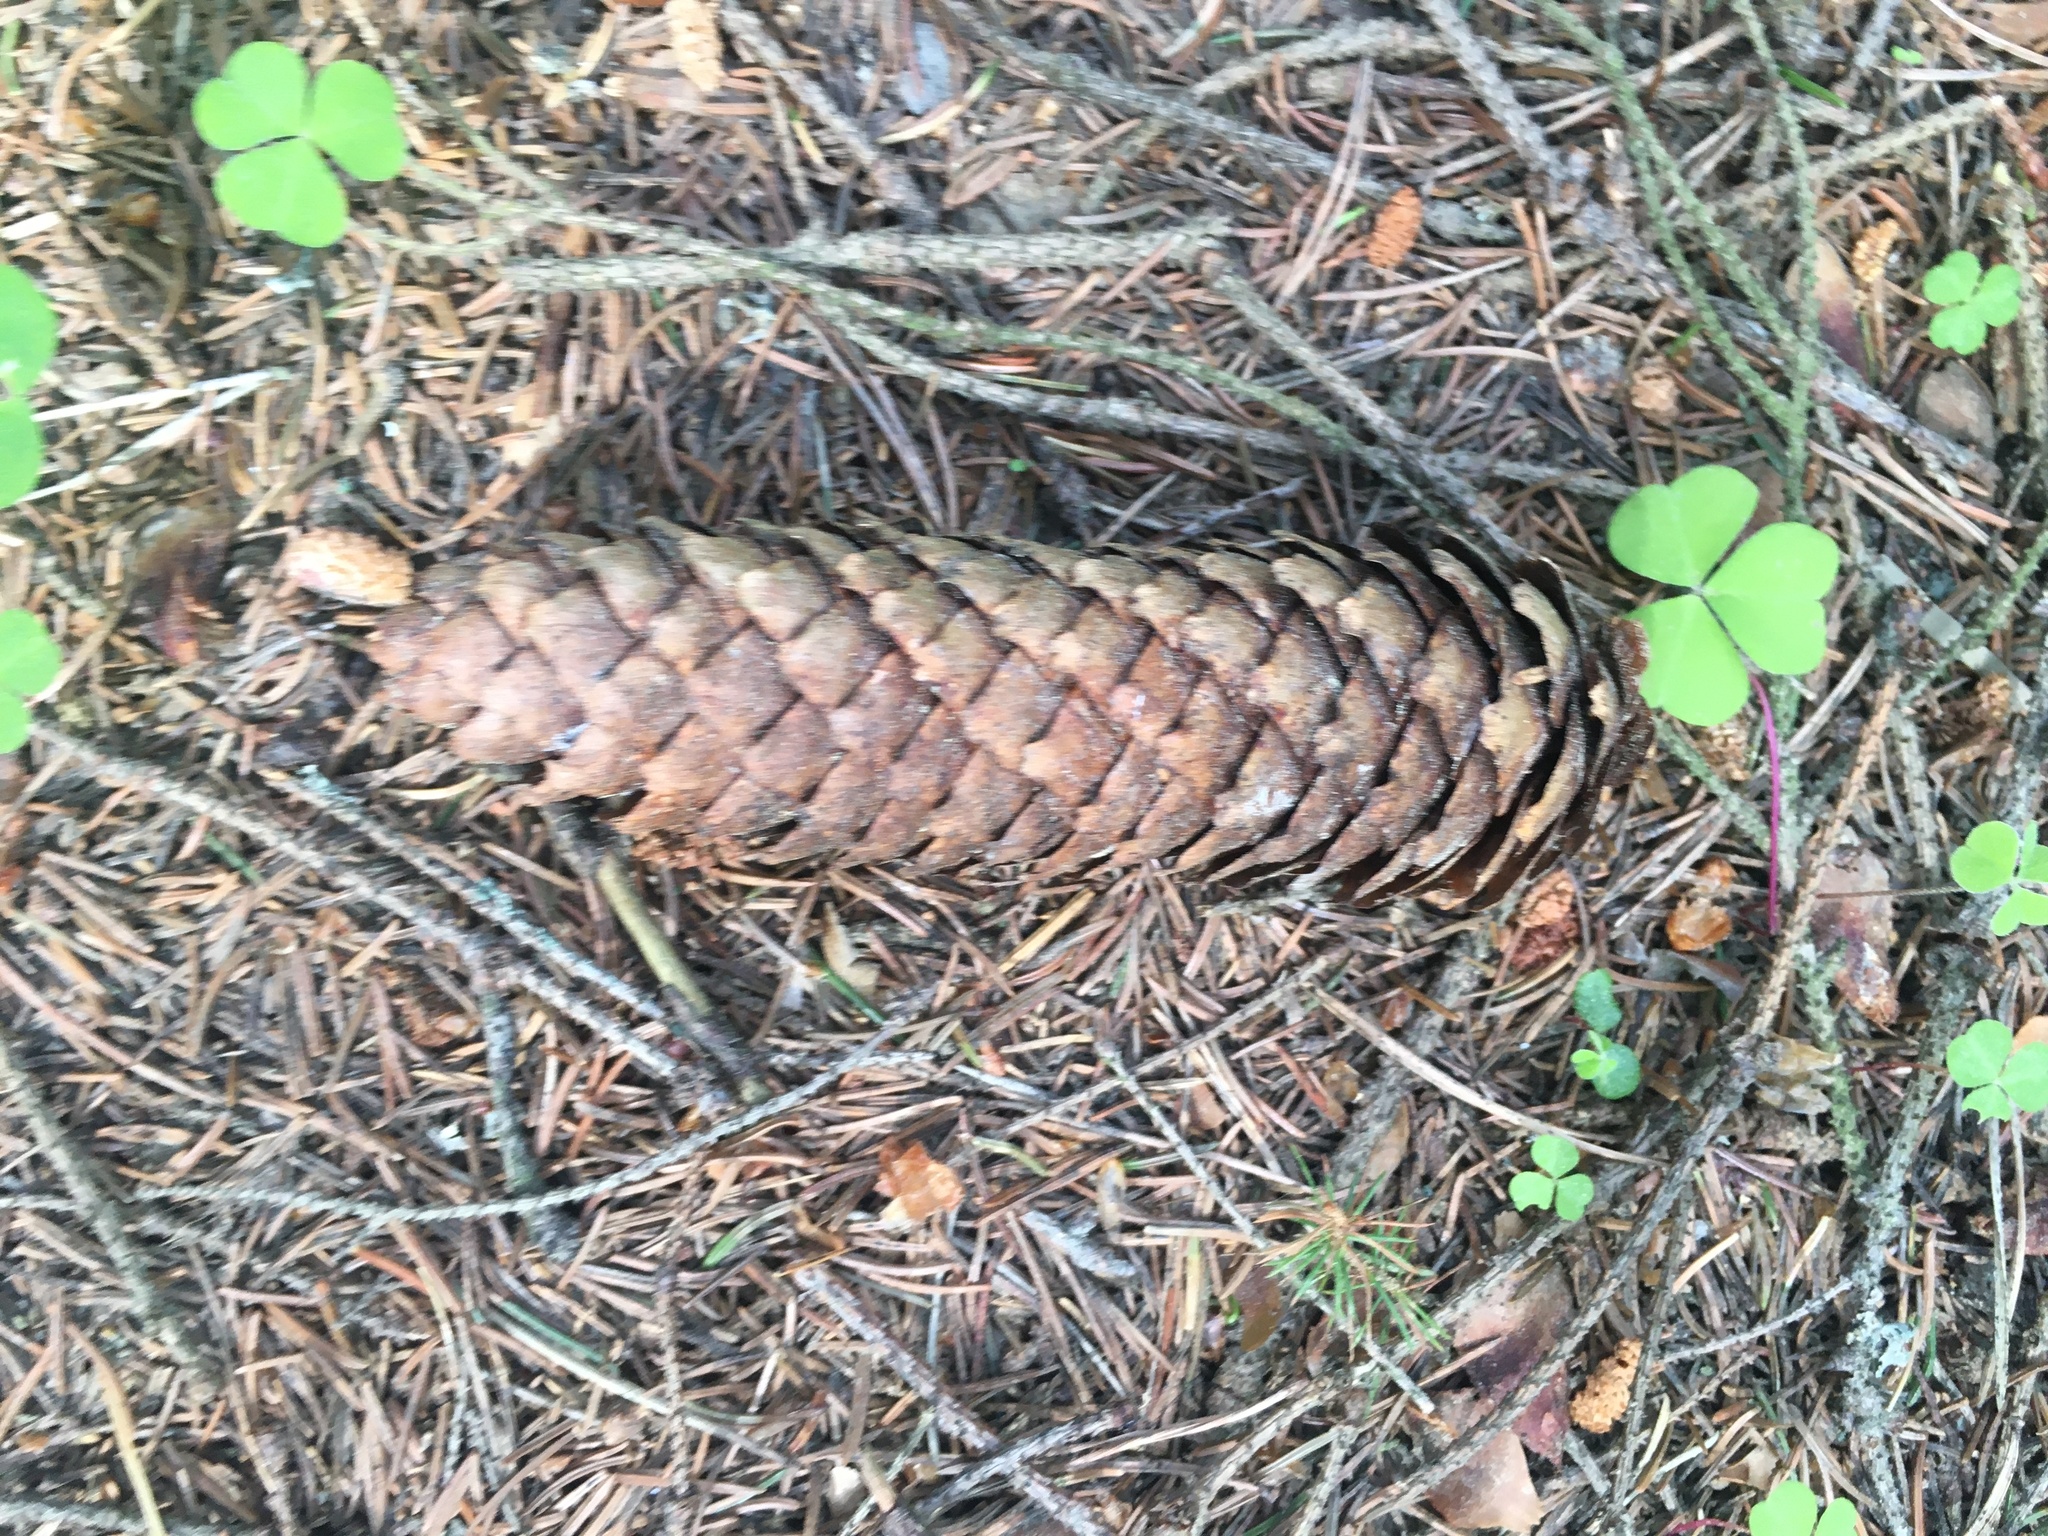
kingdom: Plantae
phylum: Tracheophyta
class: Pinopsida
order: Pinales
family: Pinaceae
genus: Picea
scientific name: Picea abies
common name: Norway spruce
